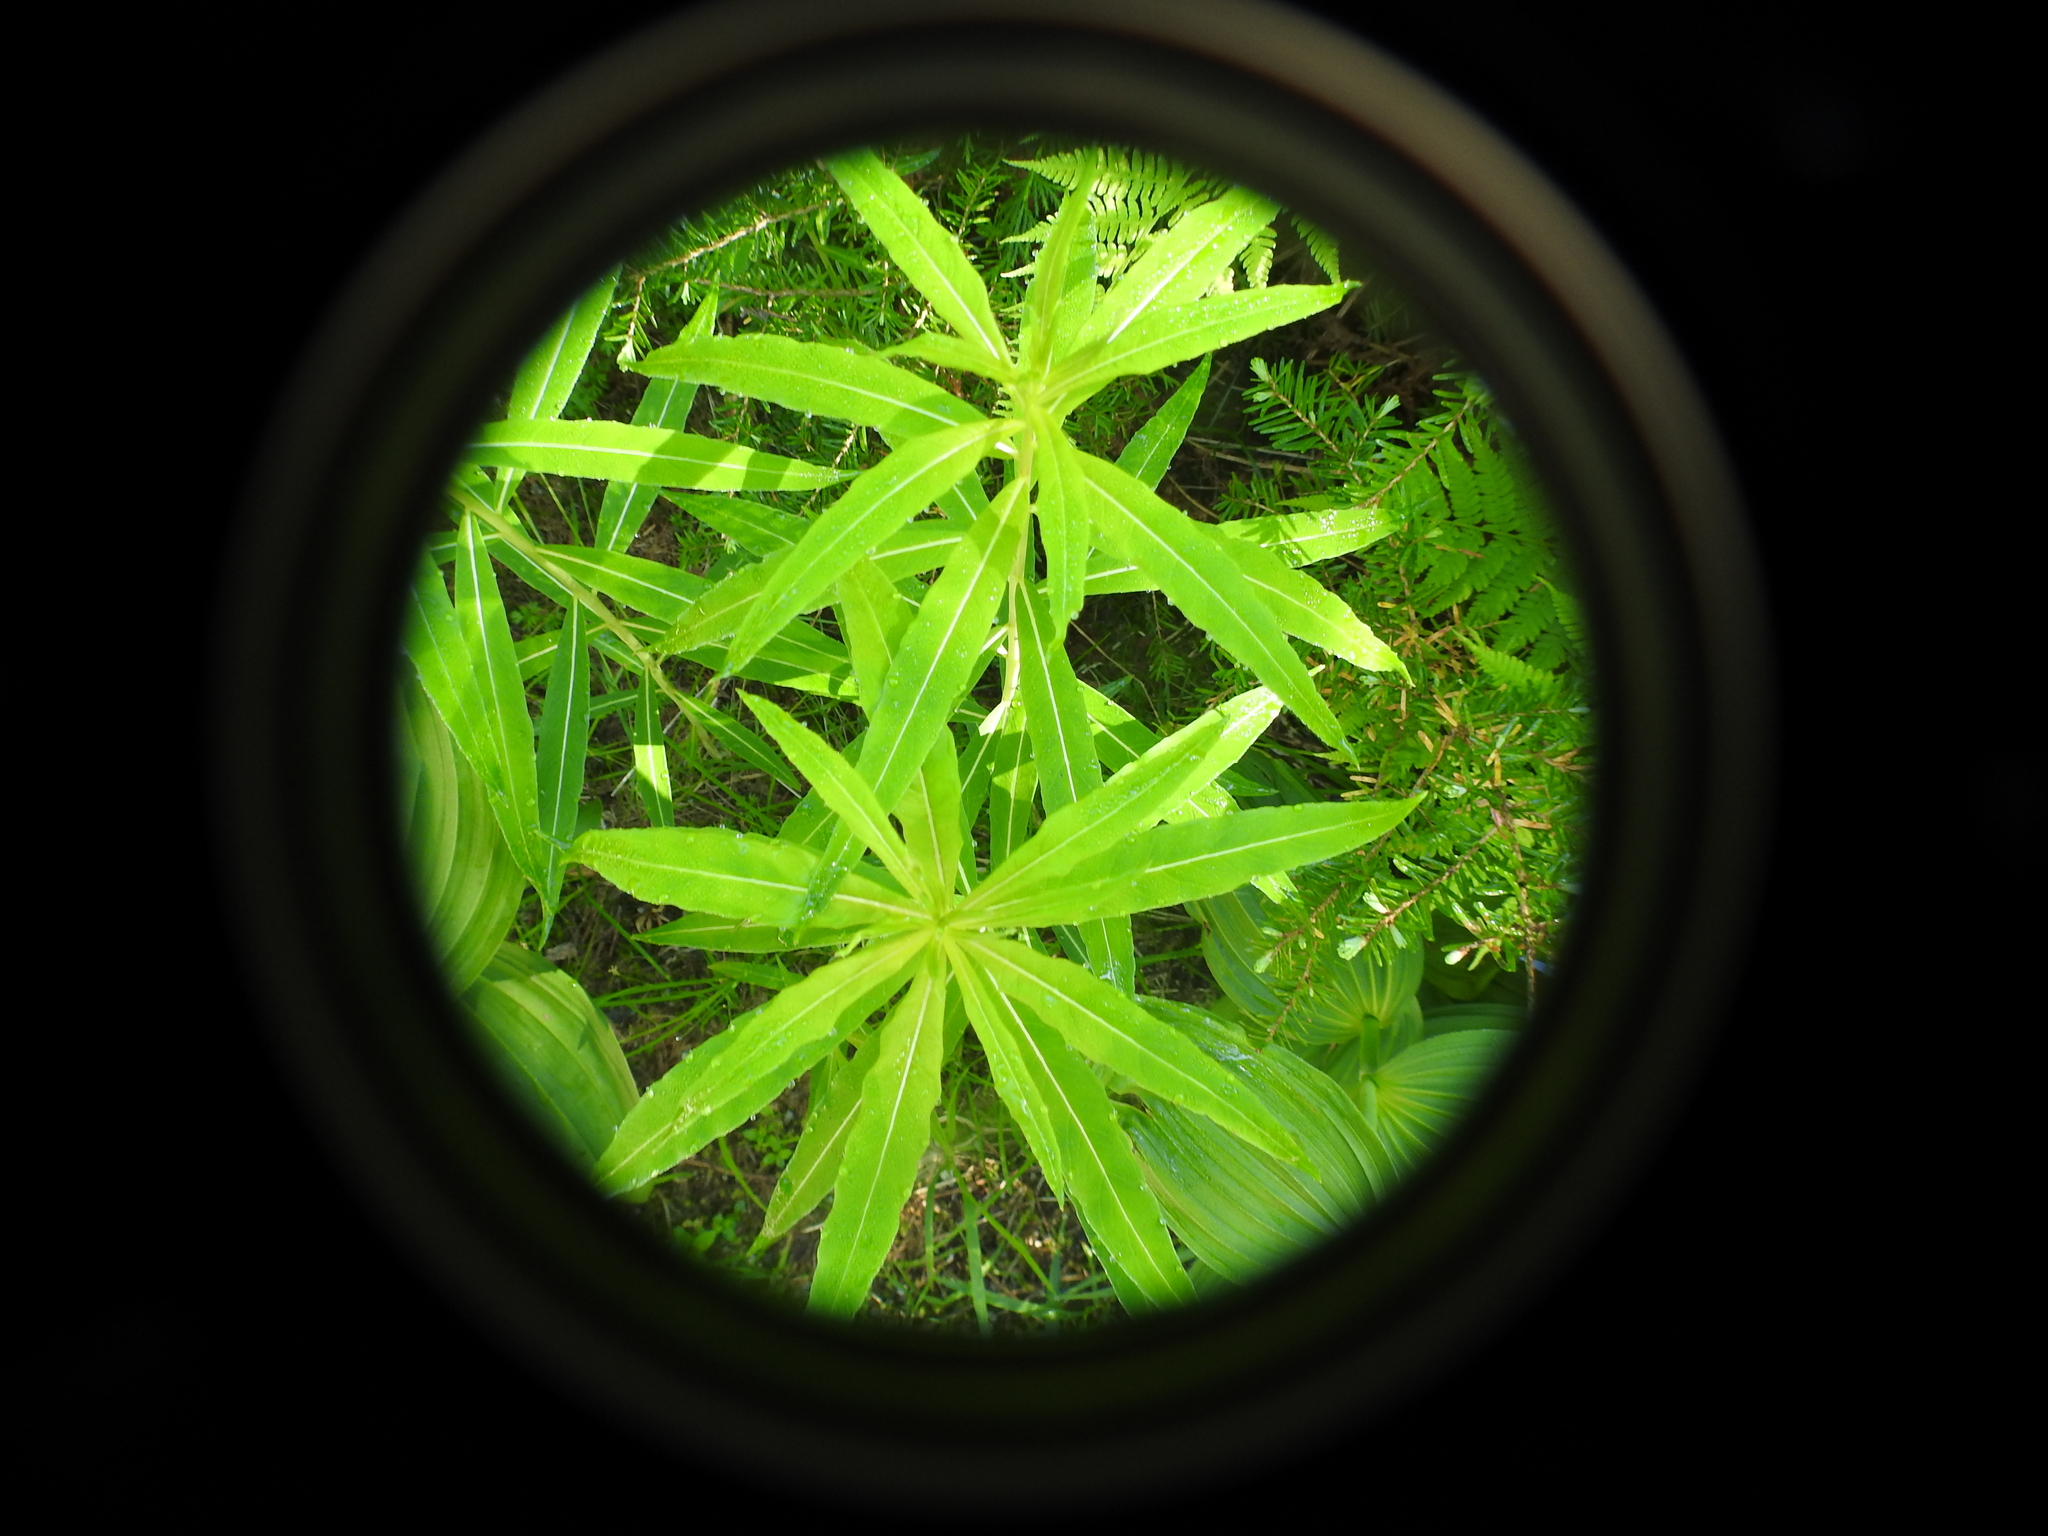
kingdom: Plantae
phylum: Tracheophyta
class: Magnoliopsida
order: Myrtales
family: Onagraceae
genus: Chamaenerion
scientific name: Chamaenerion angustifolium
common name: Fireweed
